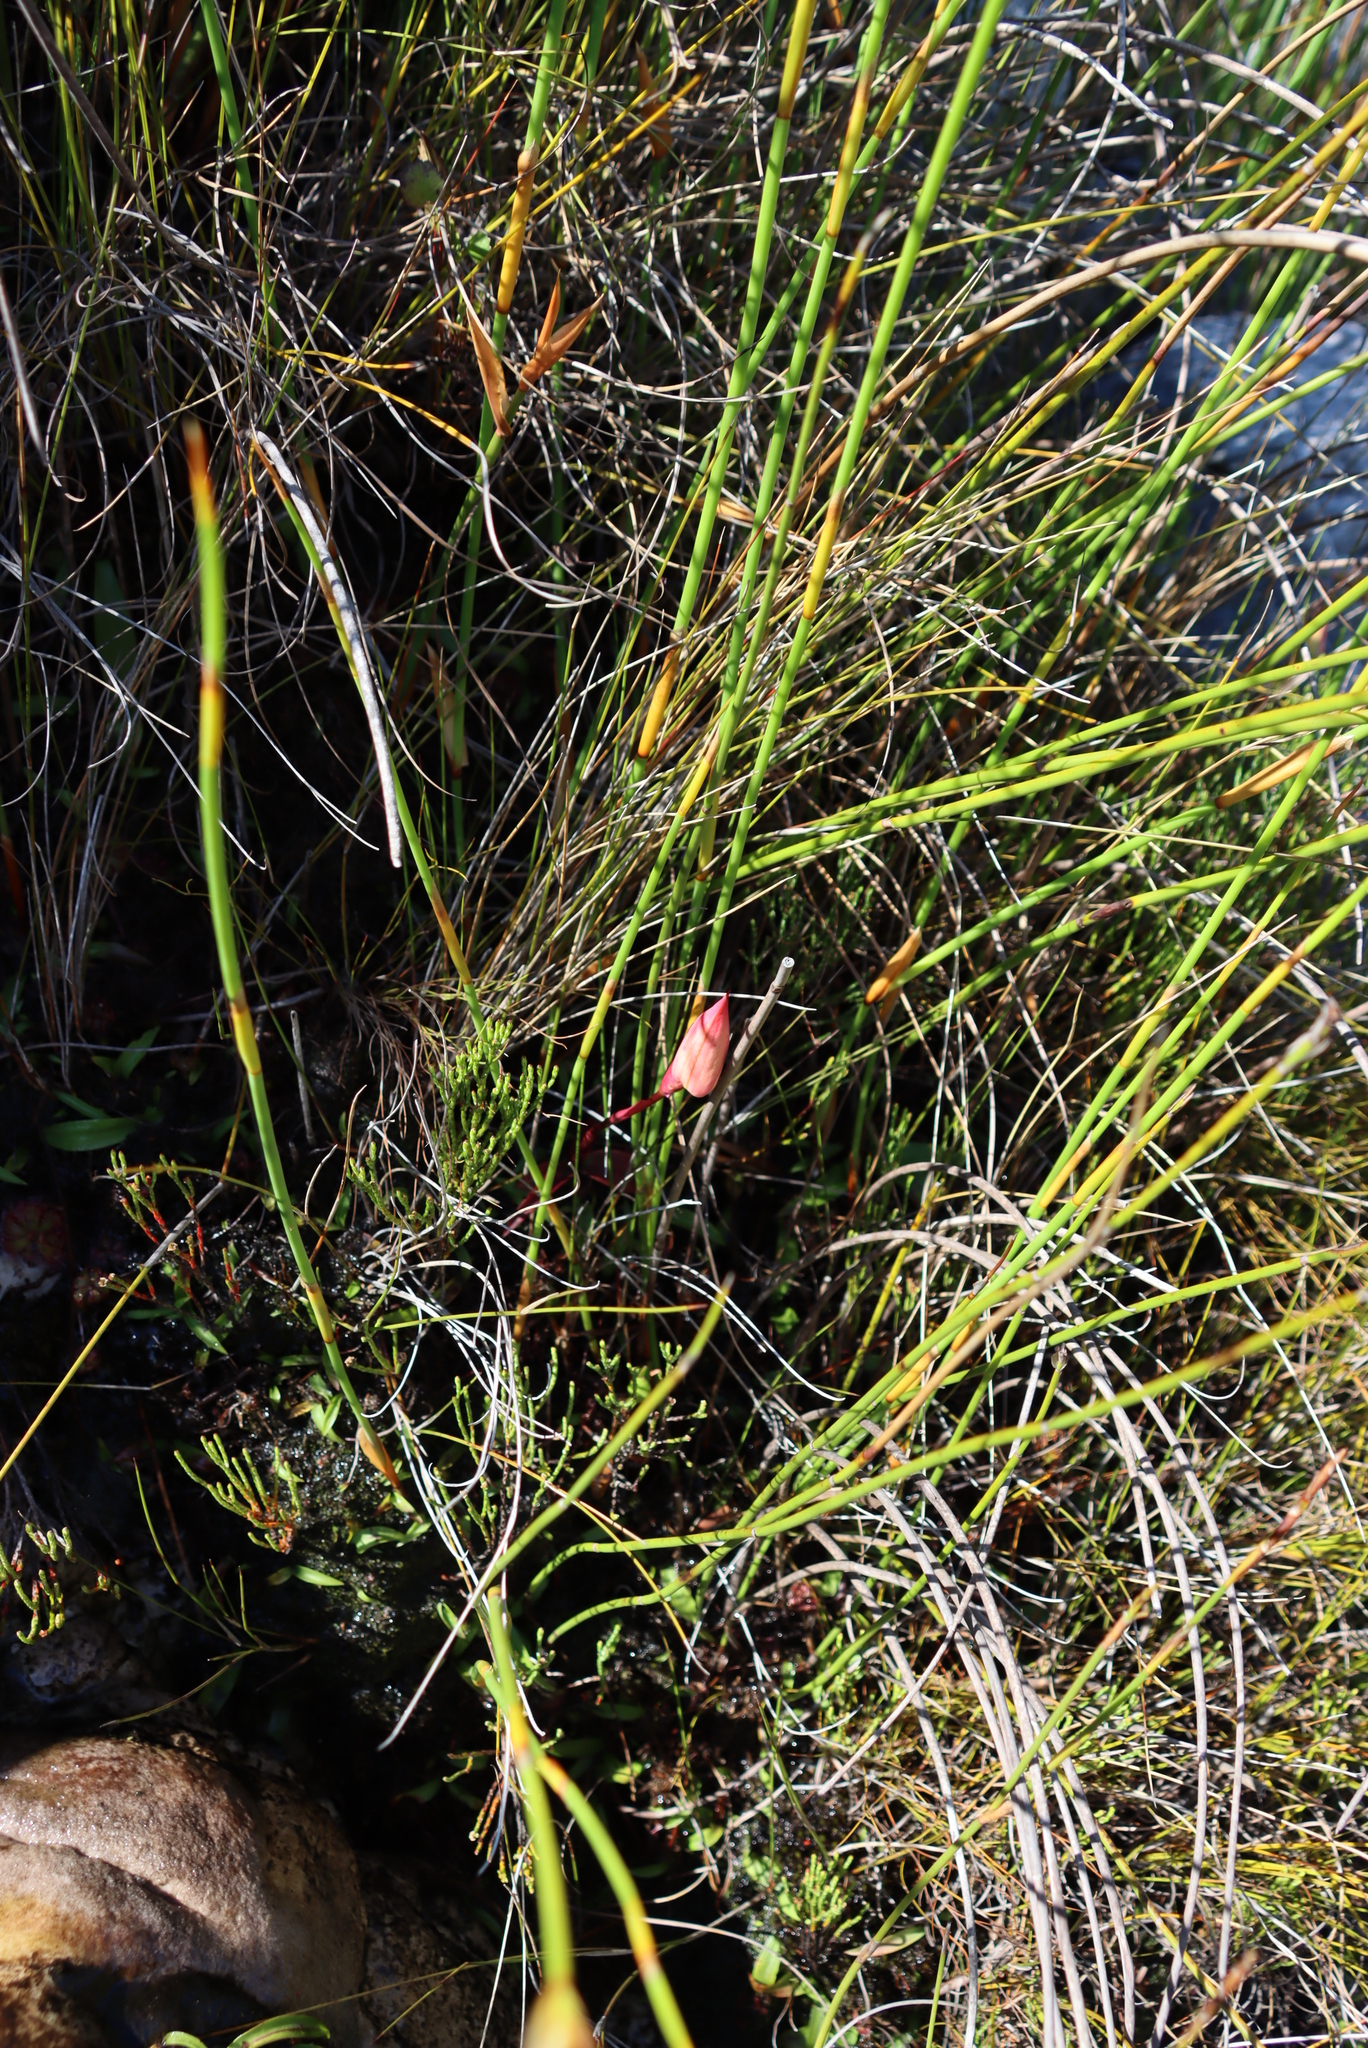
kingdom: Plantae
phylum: Tracheophyta
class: Liliopsida
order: Asparagales
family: Orchidaceae
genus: Disa
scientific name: Disa uniflora
